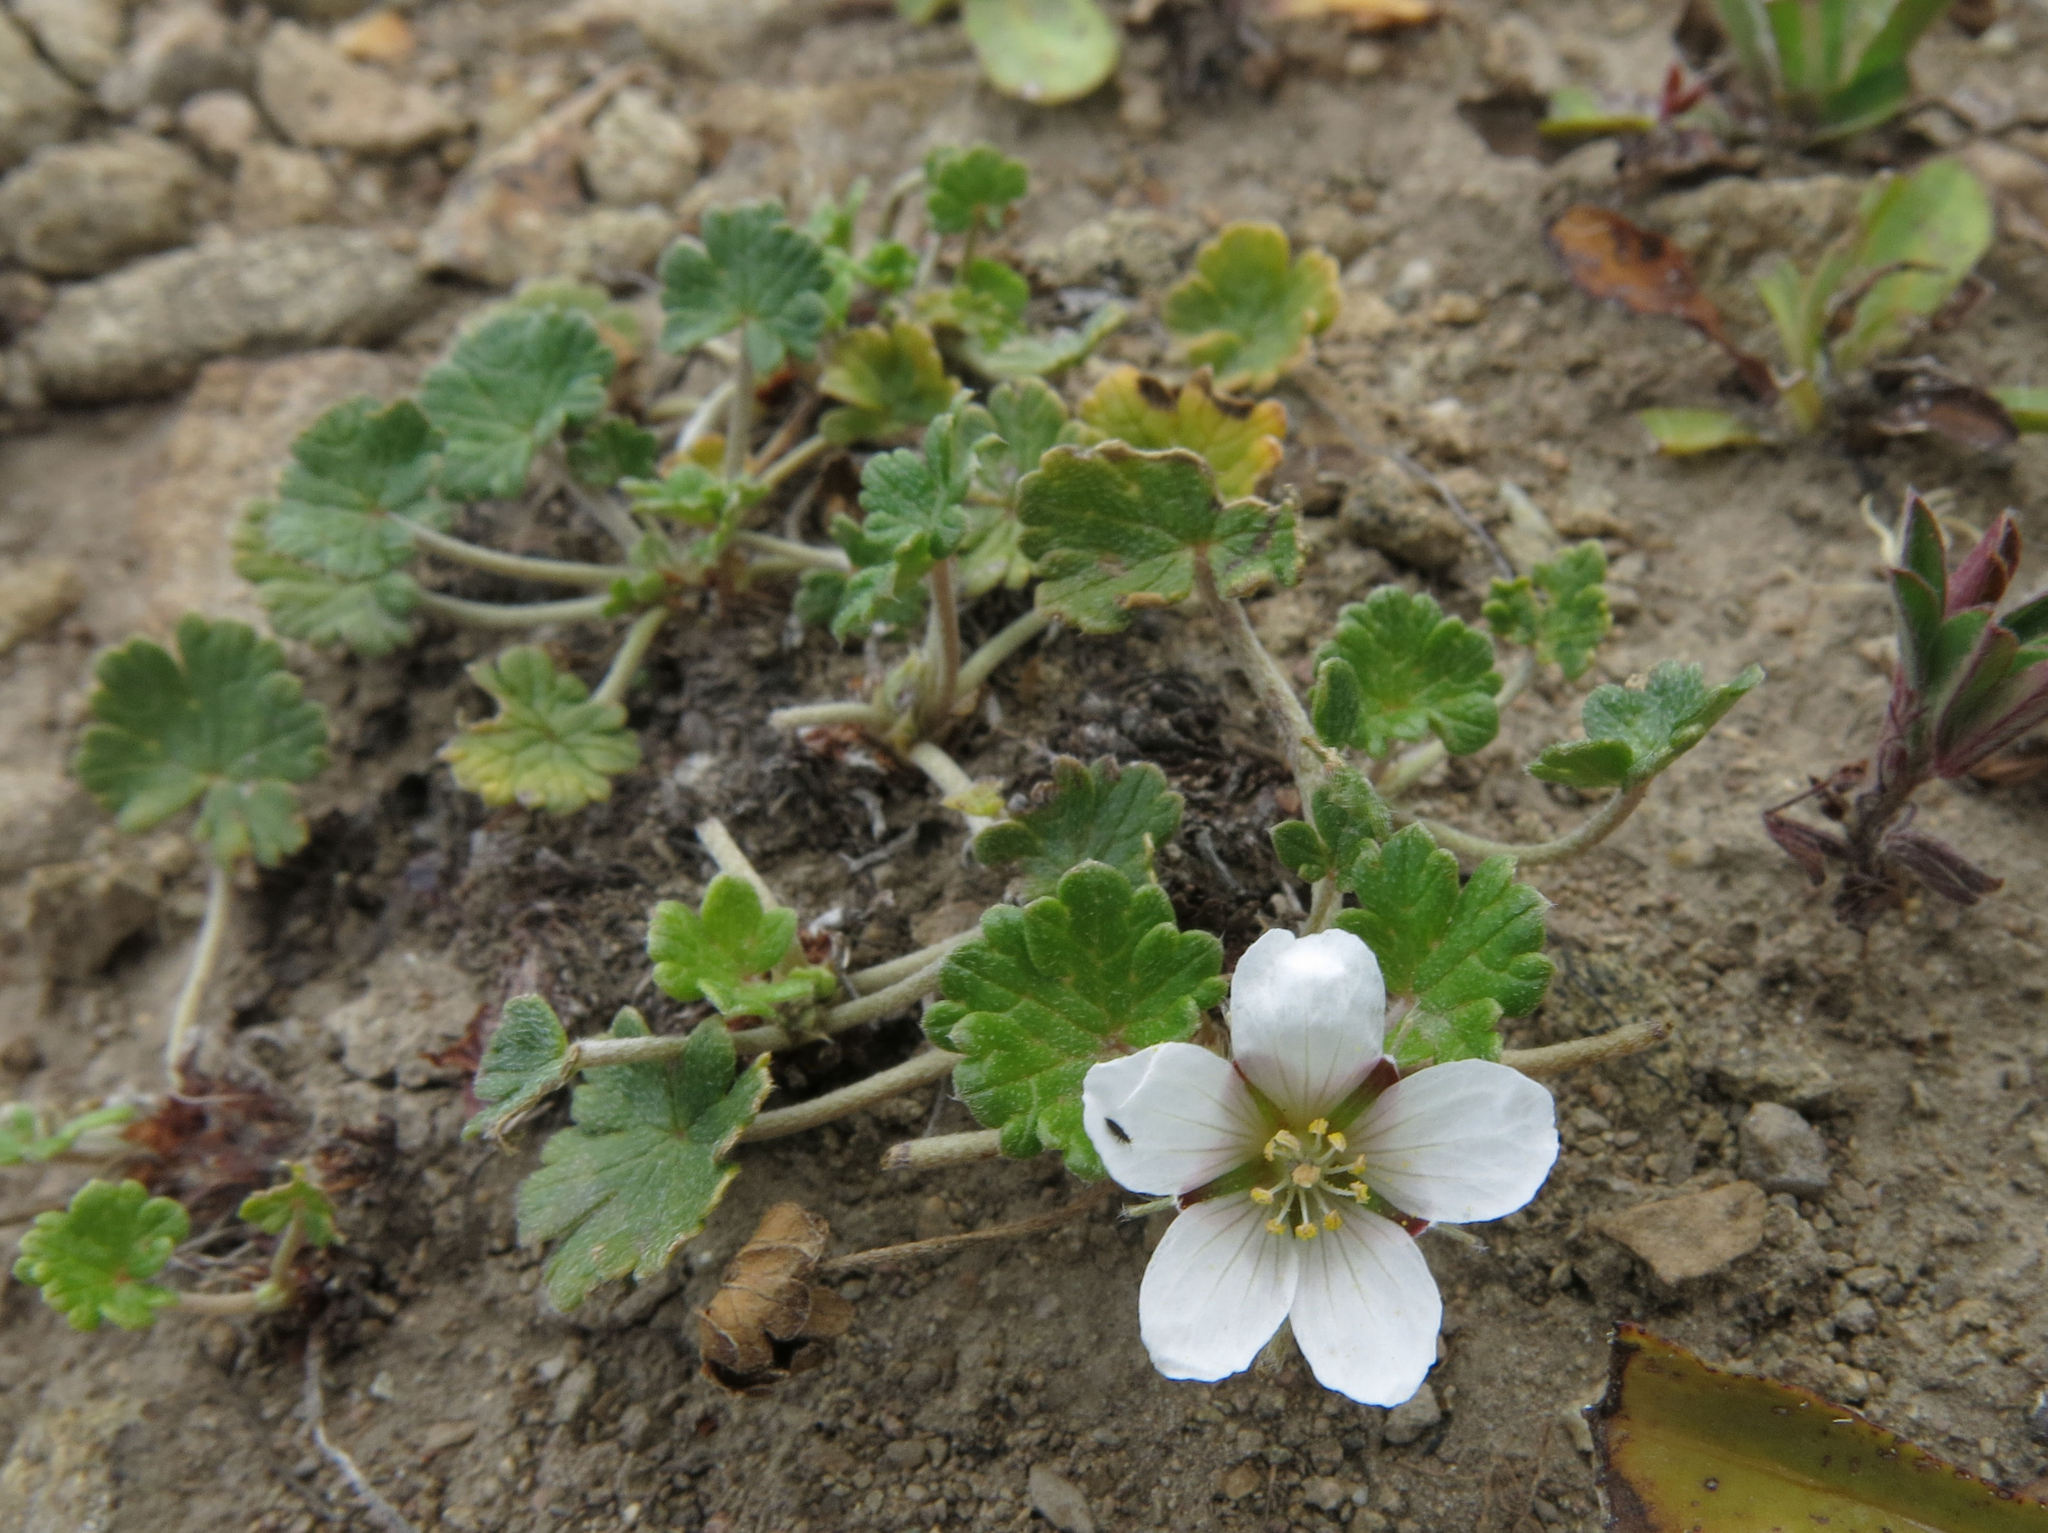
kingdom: Plantae
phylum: Tracheophyta
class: Magnoliopsida
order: Geraniales
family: Geraniaceae
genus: Geranium
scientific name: Geranium brevicaule
